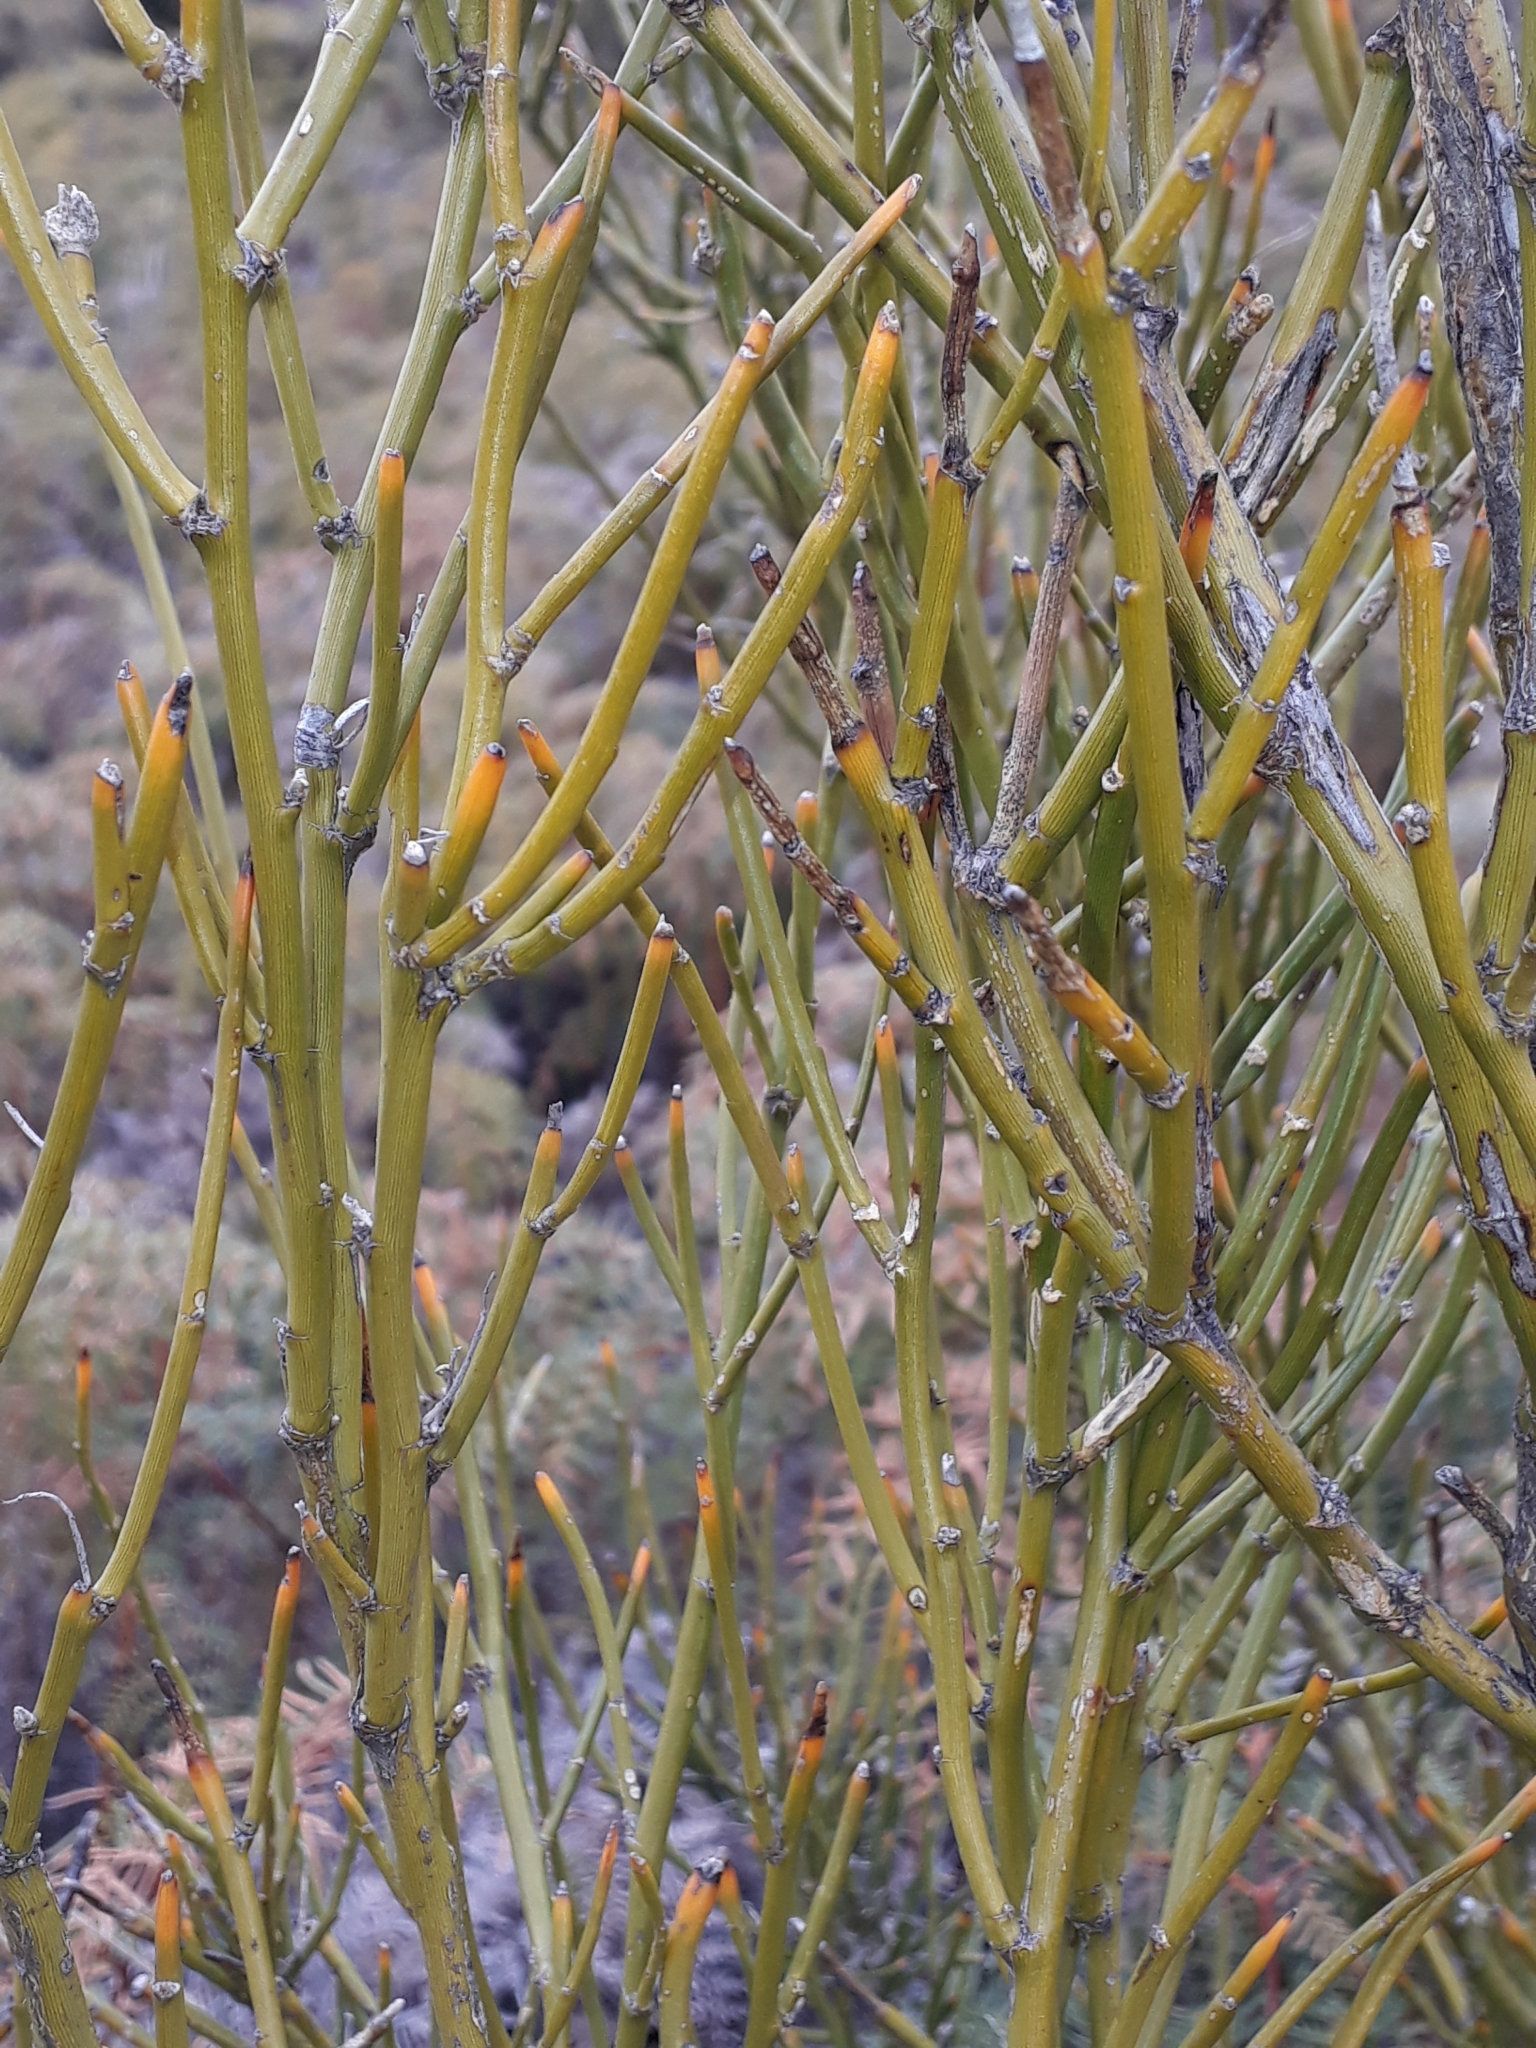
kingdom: Plantae
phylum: Tracheophyta
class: Magnoliopsida
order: Fabales
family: Fabaceae
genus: Carmichaelia
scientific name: Carmichaelia petriei
